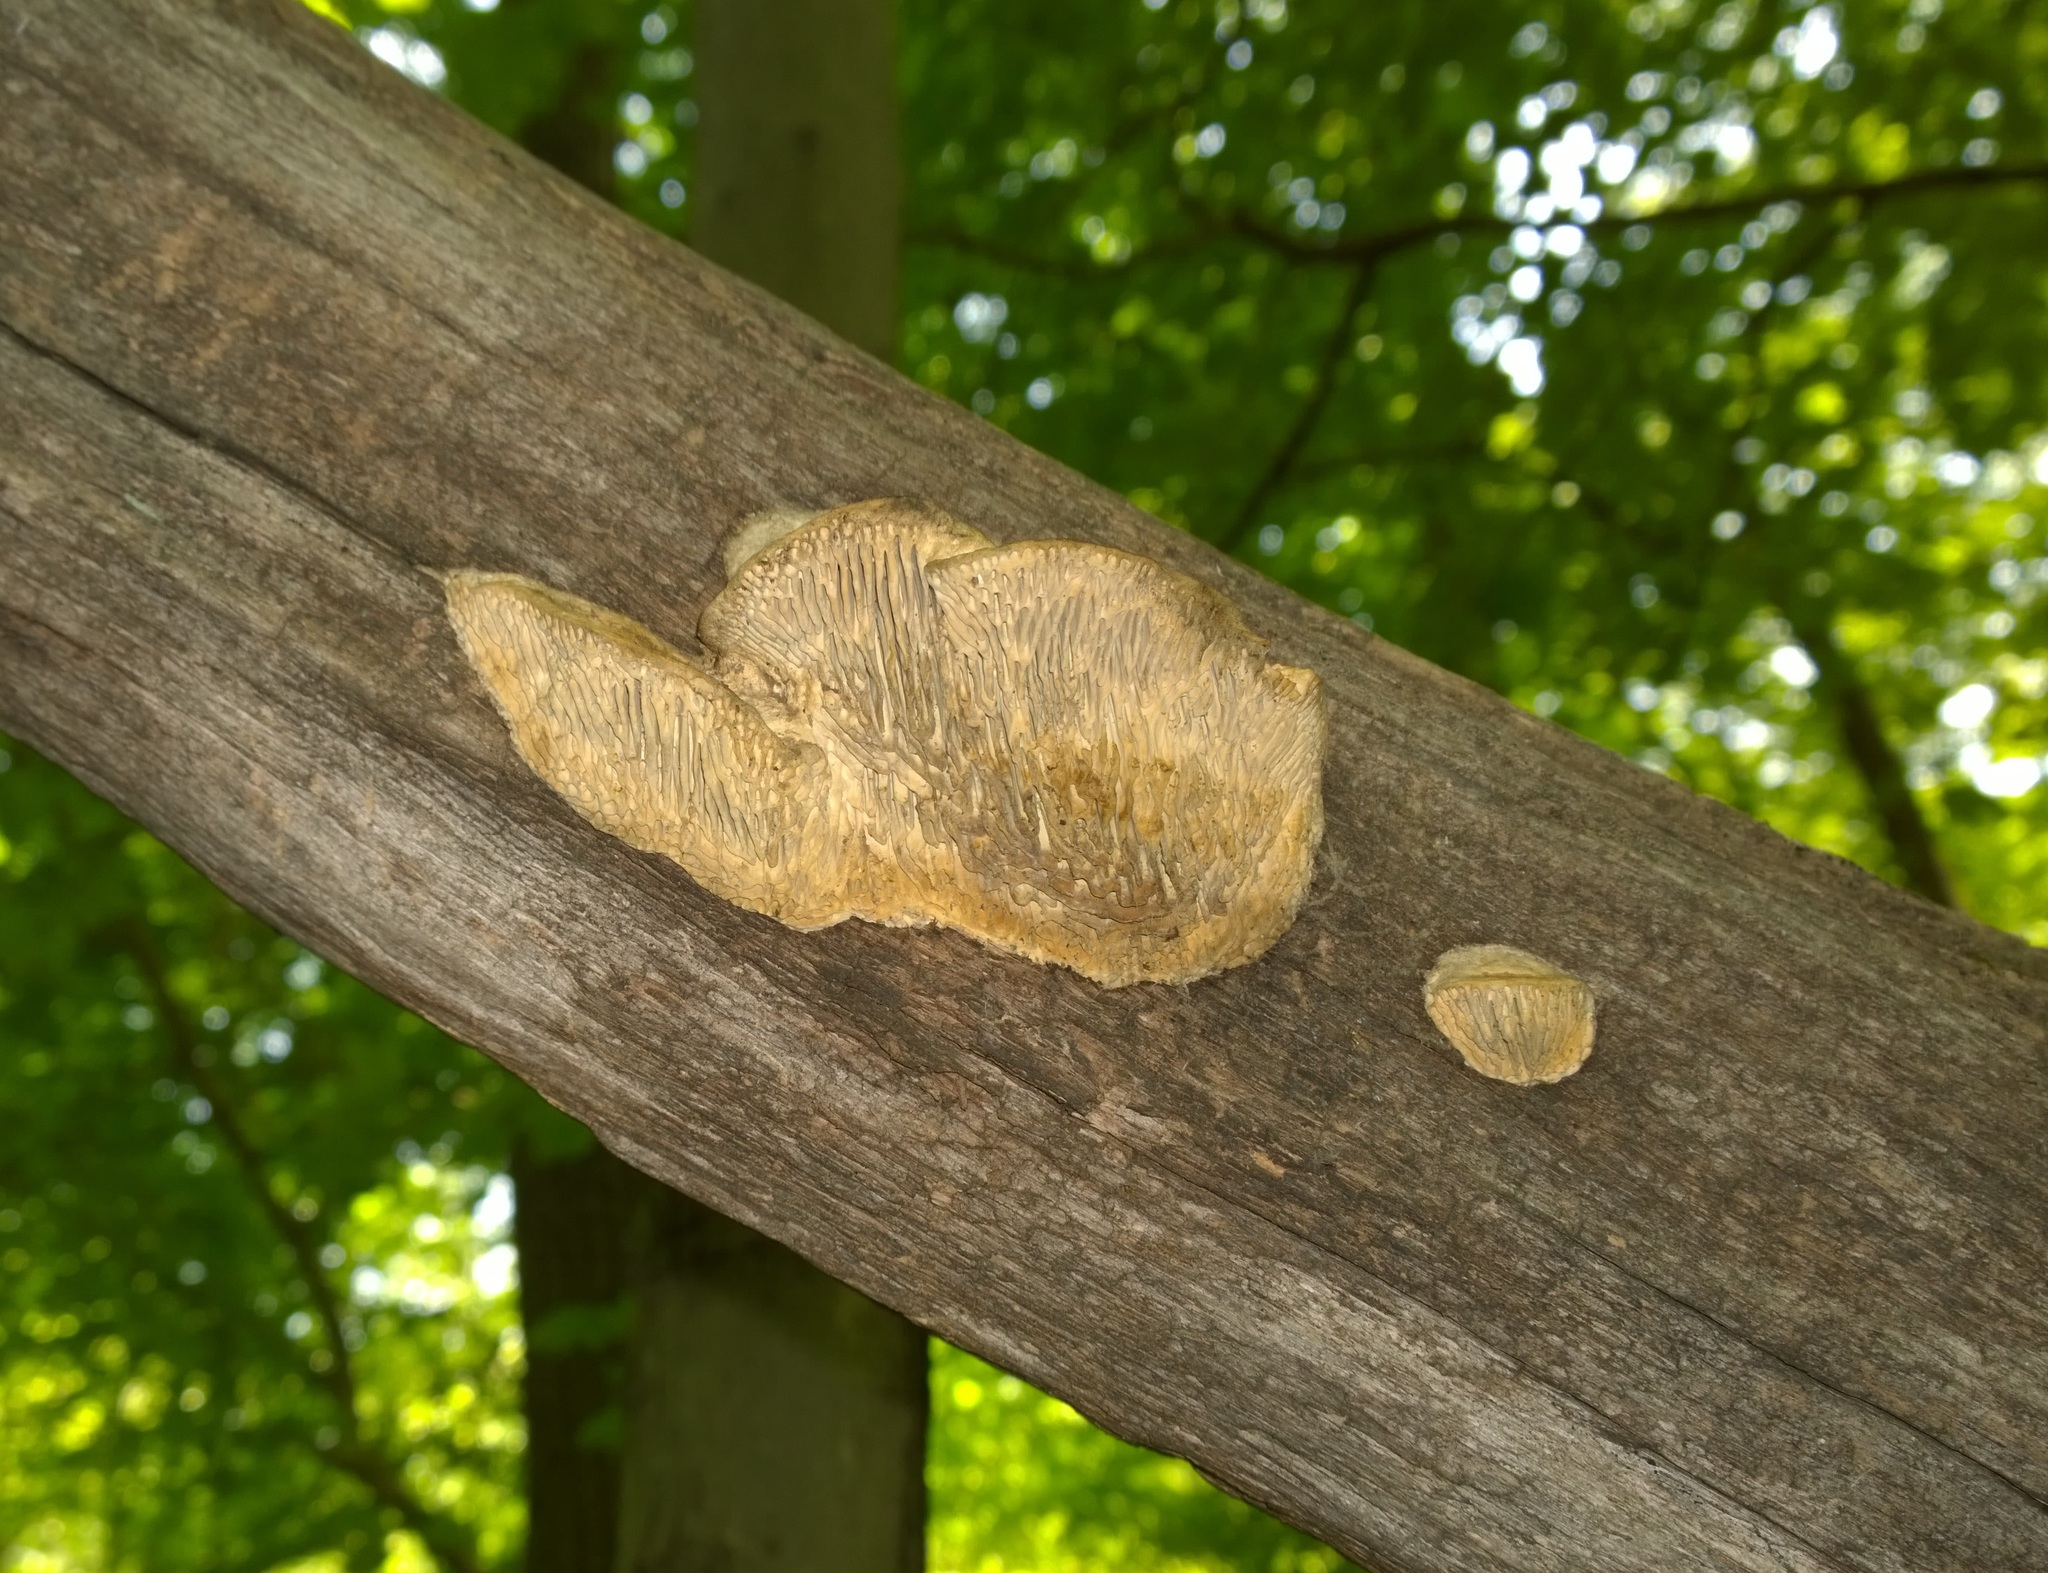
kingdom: Fungi
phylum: Basidiomycota
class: Agaricomycetes
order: Polyporales
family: Fomitopsidaceae
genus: Fomitopsis
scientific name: Fomitopsis
